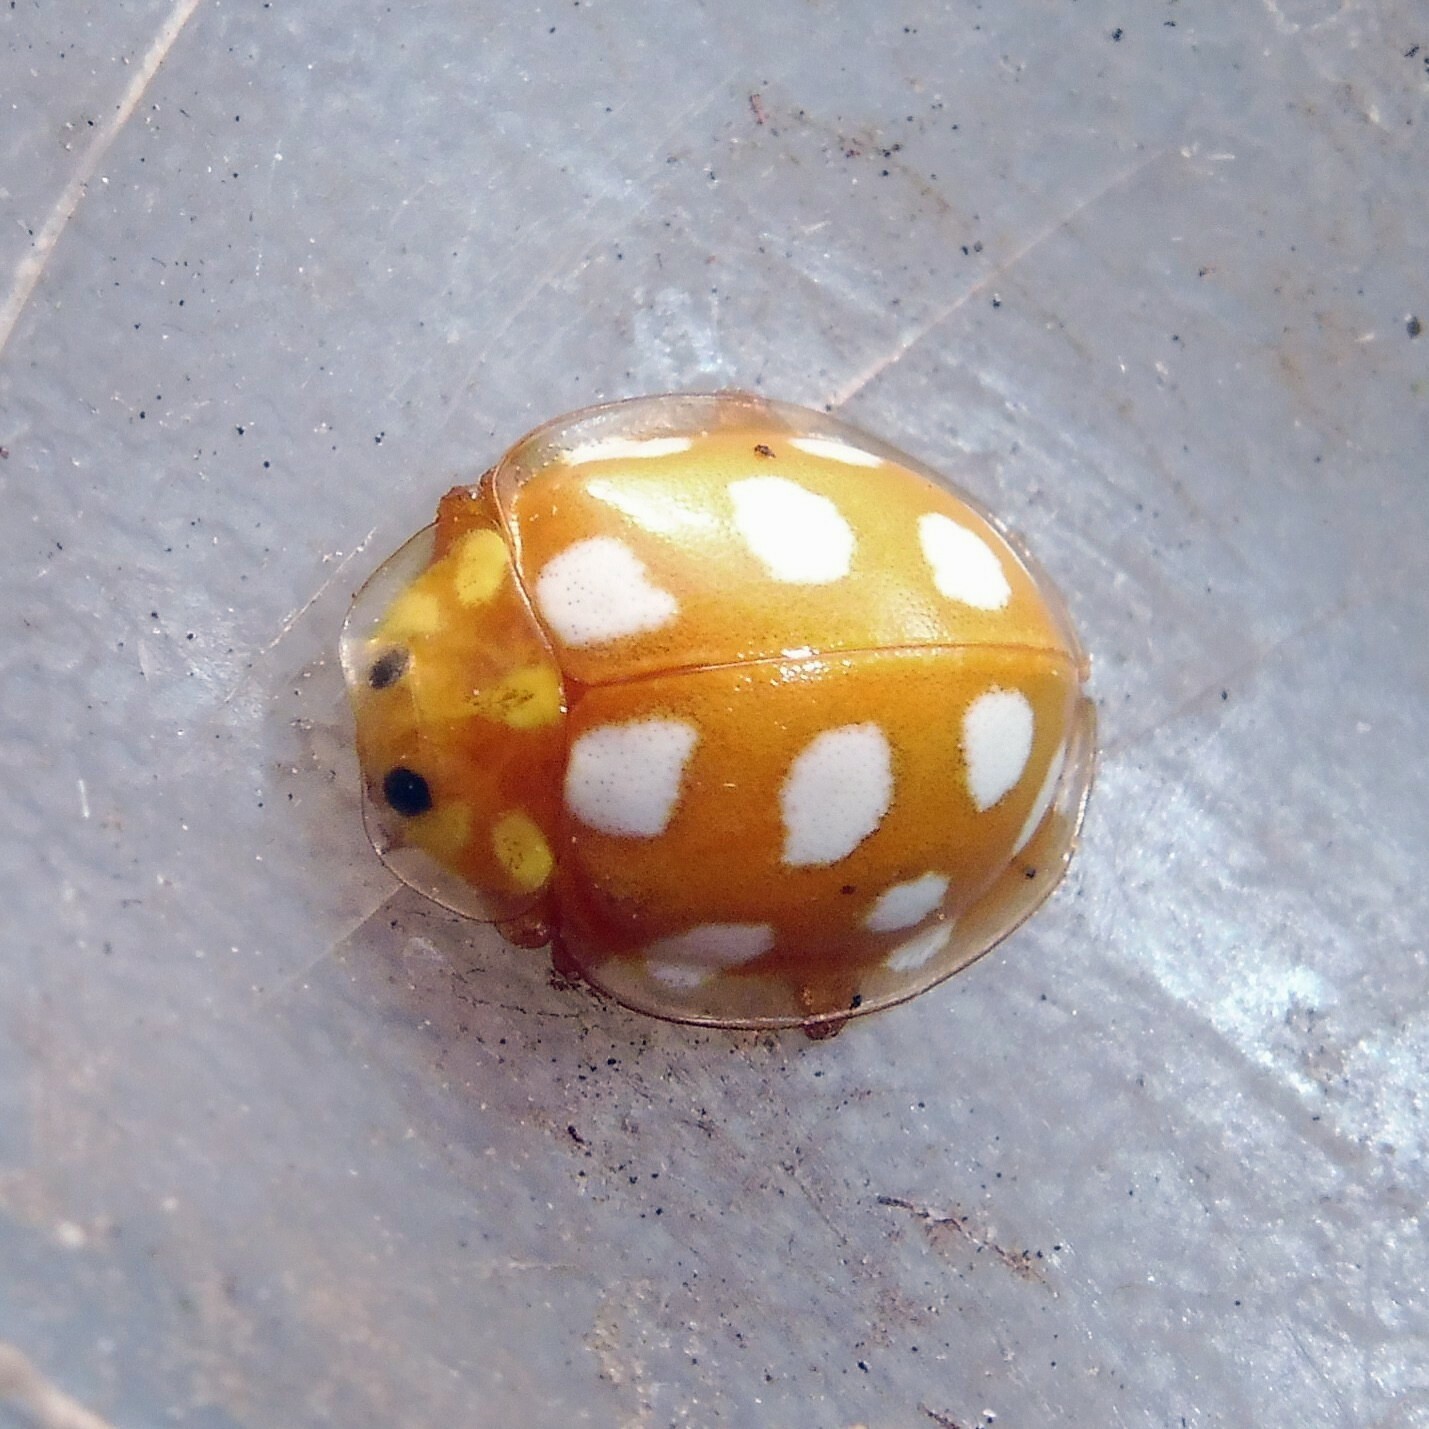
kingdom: Animalia
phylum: Arthropoda
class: Insecta
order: Coleoptera
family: Coccinellidae
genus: Halyzia
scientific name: Halyzia sedecimguttata
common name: Orange ladybird
